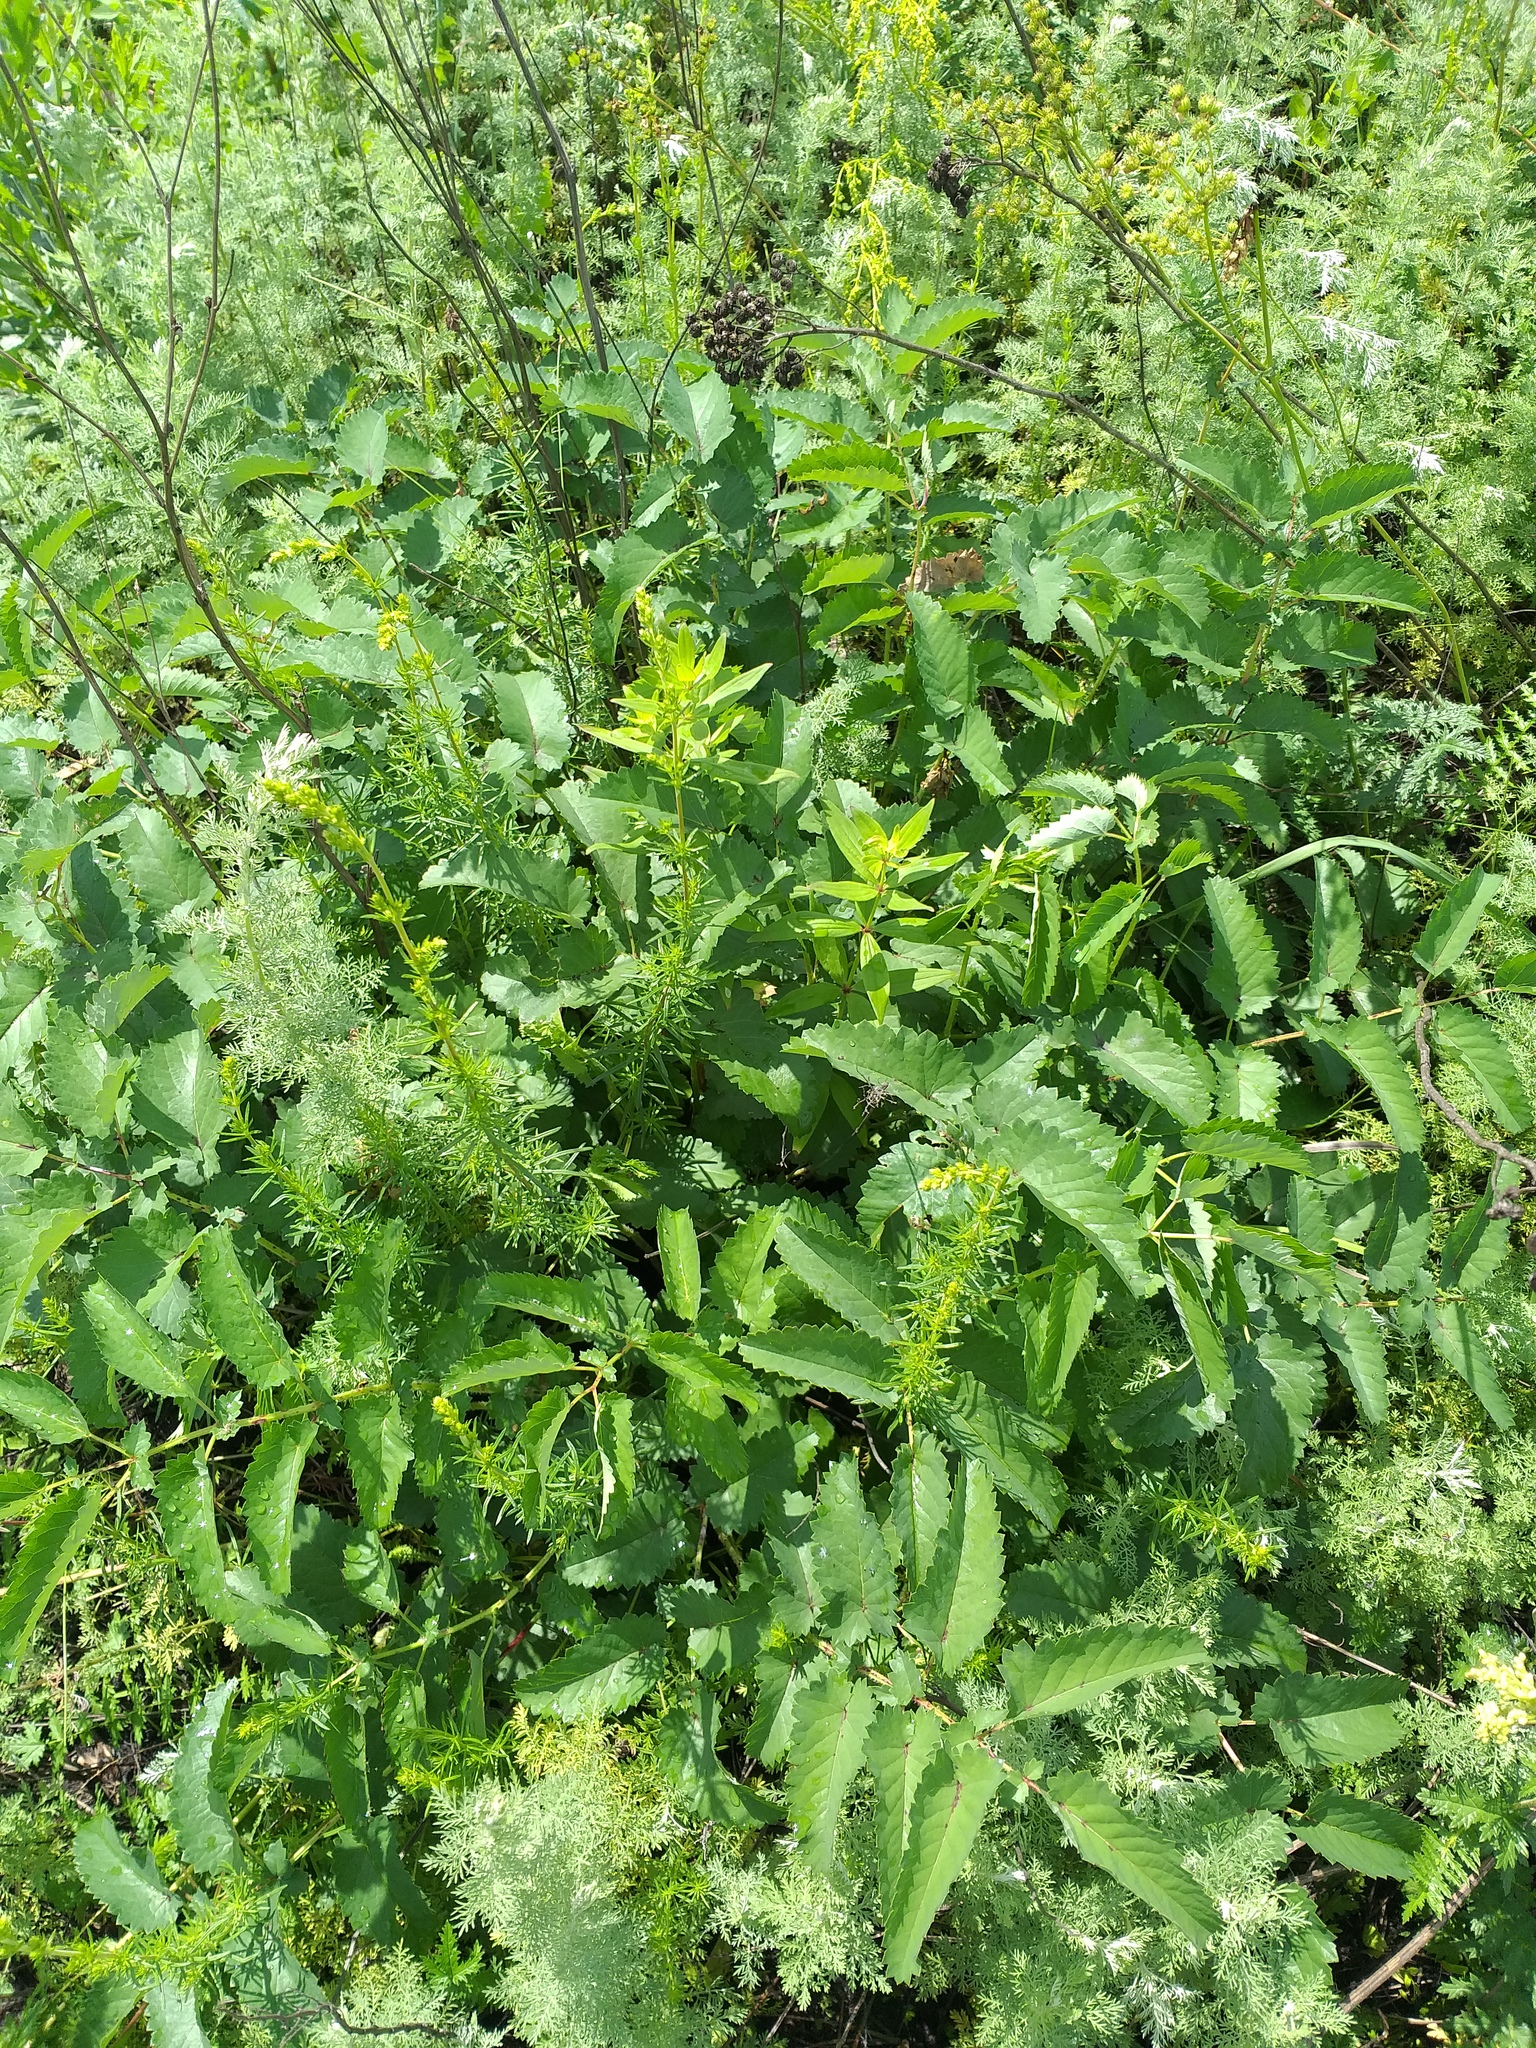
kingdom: Plantae
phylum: Tracheophyta
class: Magnoliopsida
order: Rosales
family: Rosaceae
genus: Sanguisorba
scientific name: Sanguisorba officinalis
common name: Great burnet
